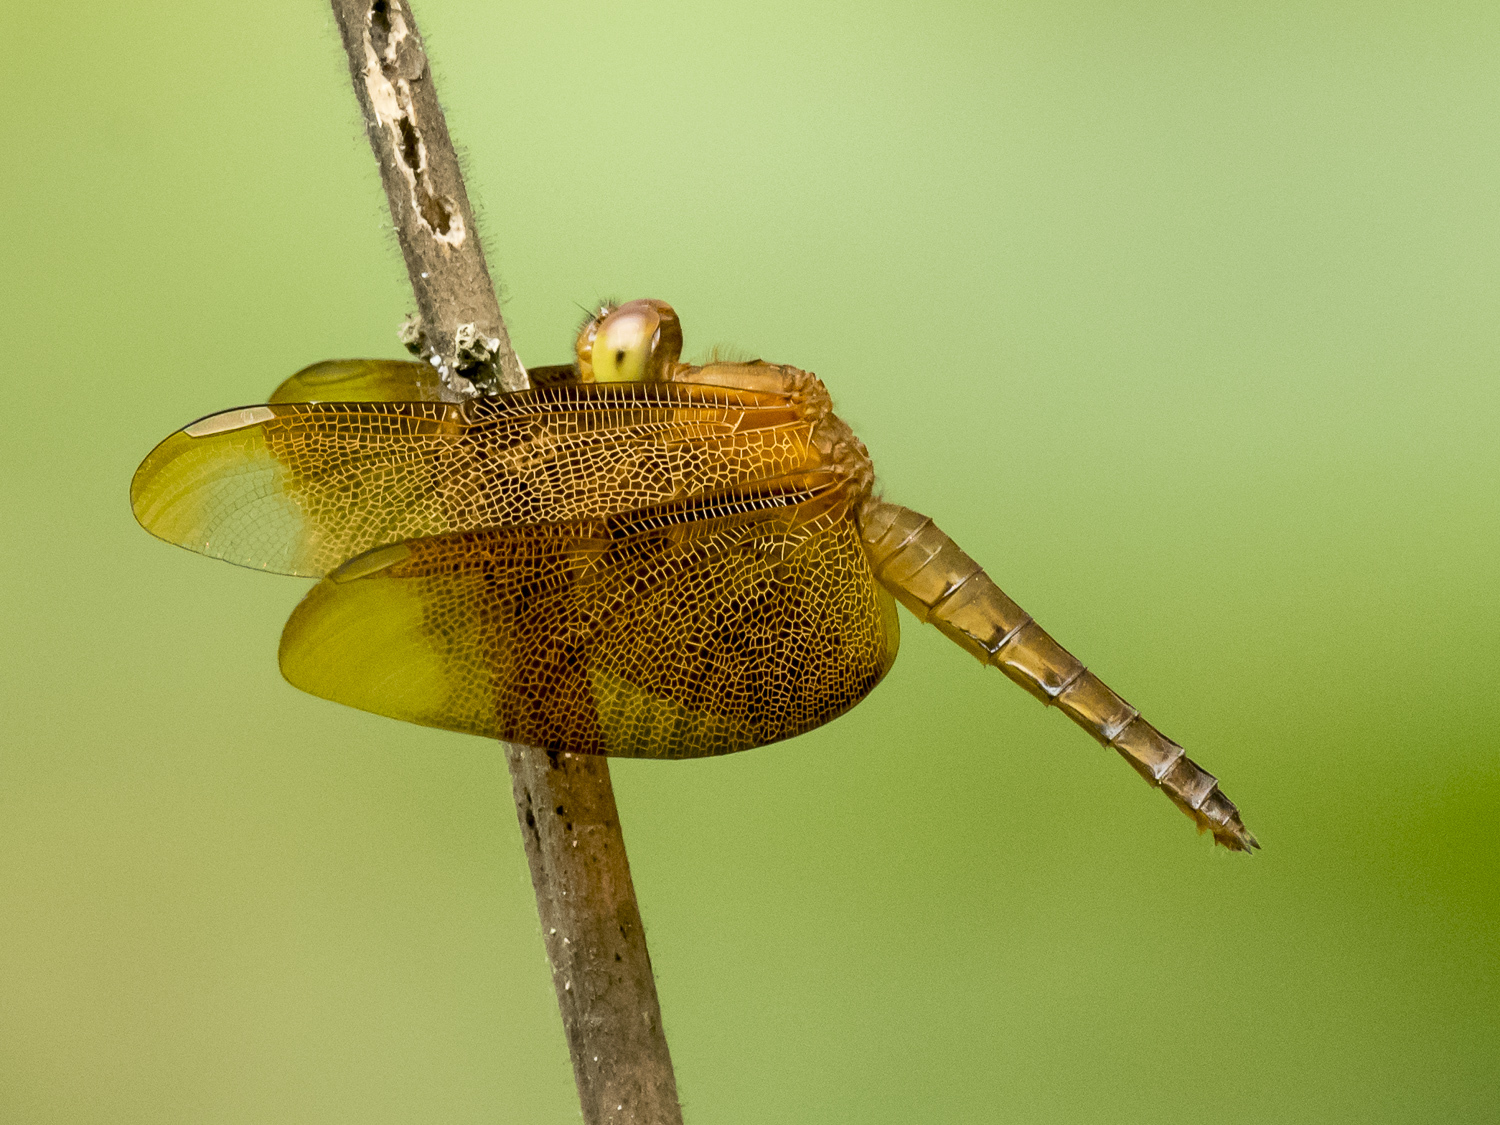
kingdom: Animalia
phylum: Arthropoda
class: Insecta
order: Odonata
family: Libellulidae
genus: Neurothemis
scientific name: Neurothemis fulvia
